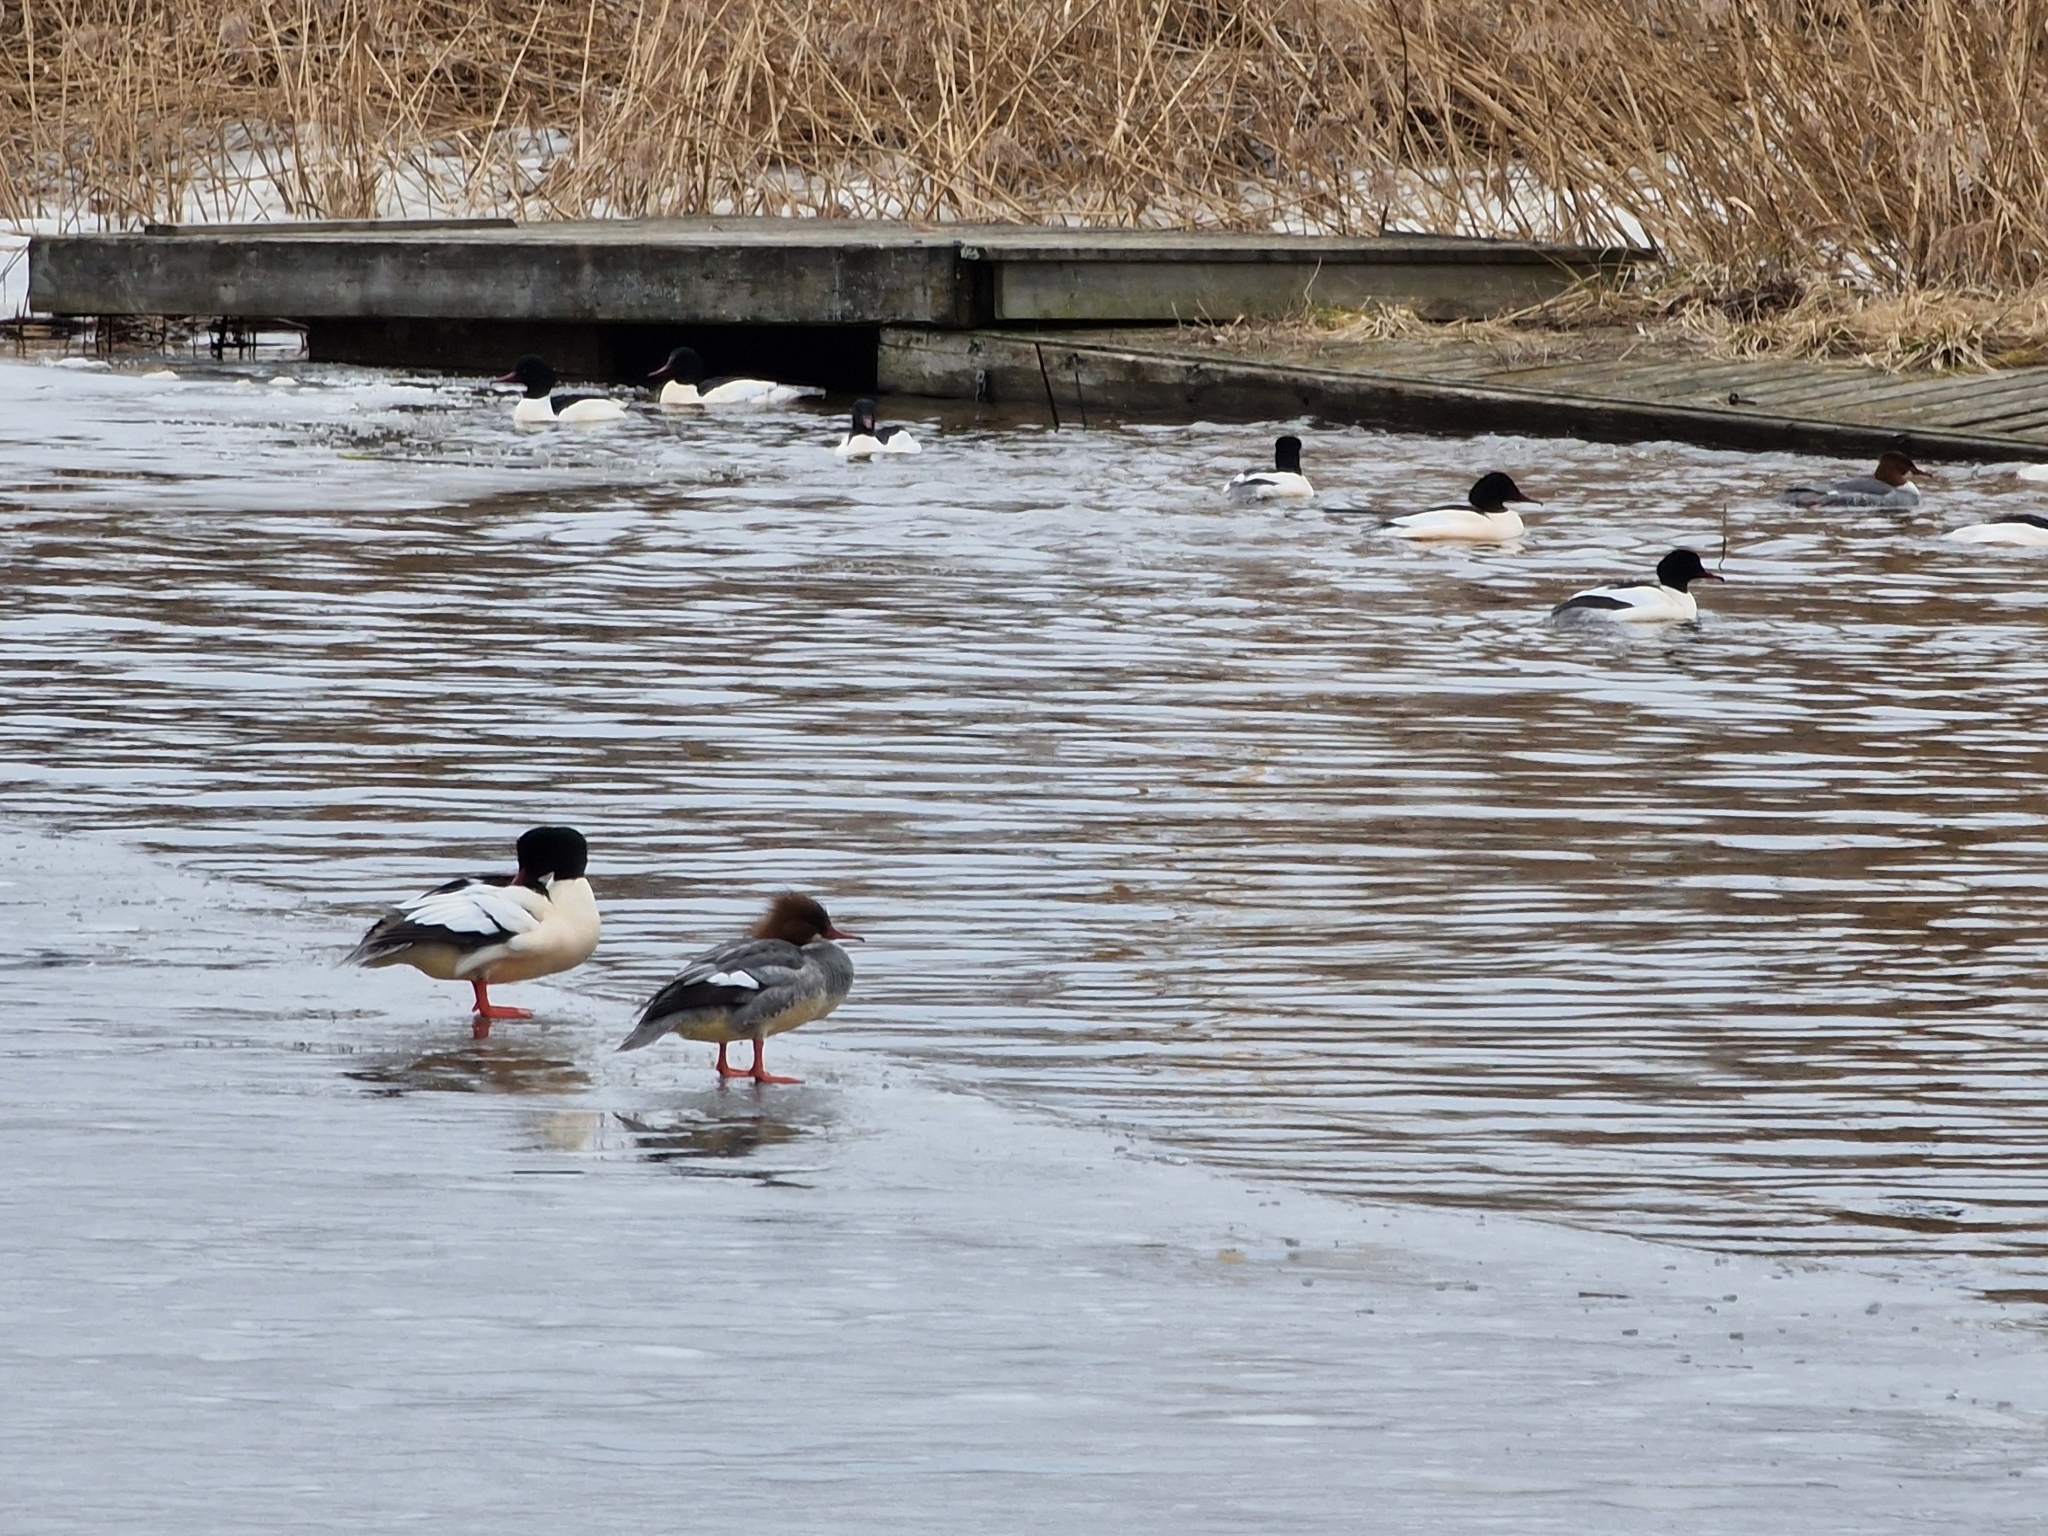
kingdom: Animalia
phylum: Chordata
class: Aves
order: Anseriformes
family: Anatidae
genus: Mergus
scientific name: Mergus merganser
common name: Common merganser
